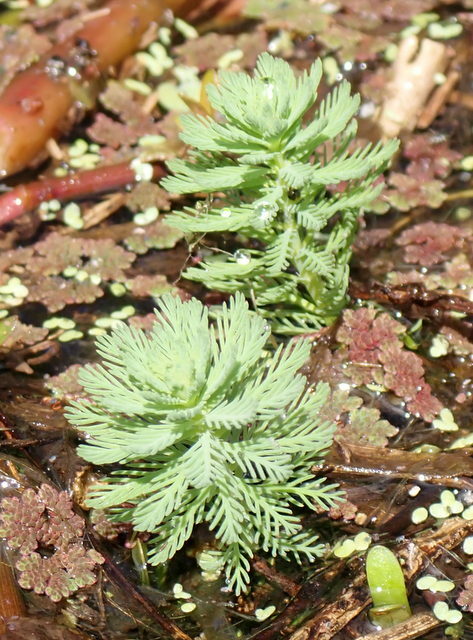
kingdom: Plantae
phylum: Tracheophyta
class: Magnoliopsida
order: Saxifragales
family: Haloragaceae
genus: Myriophyllum
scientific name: Myriophyllum aquaticum
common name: Parrot's feather
